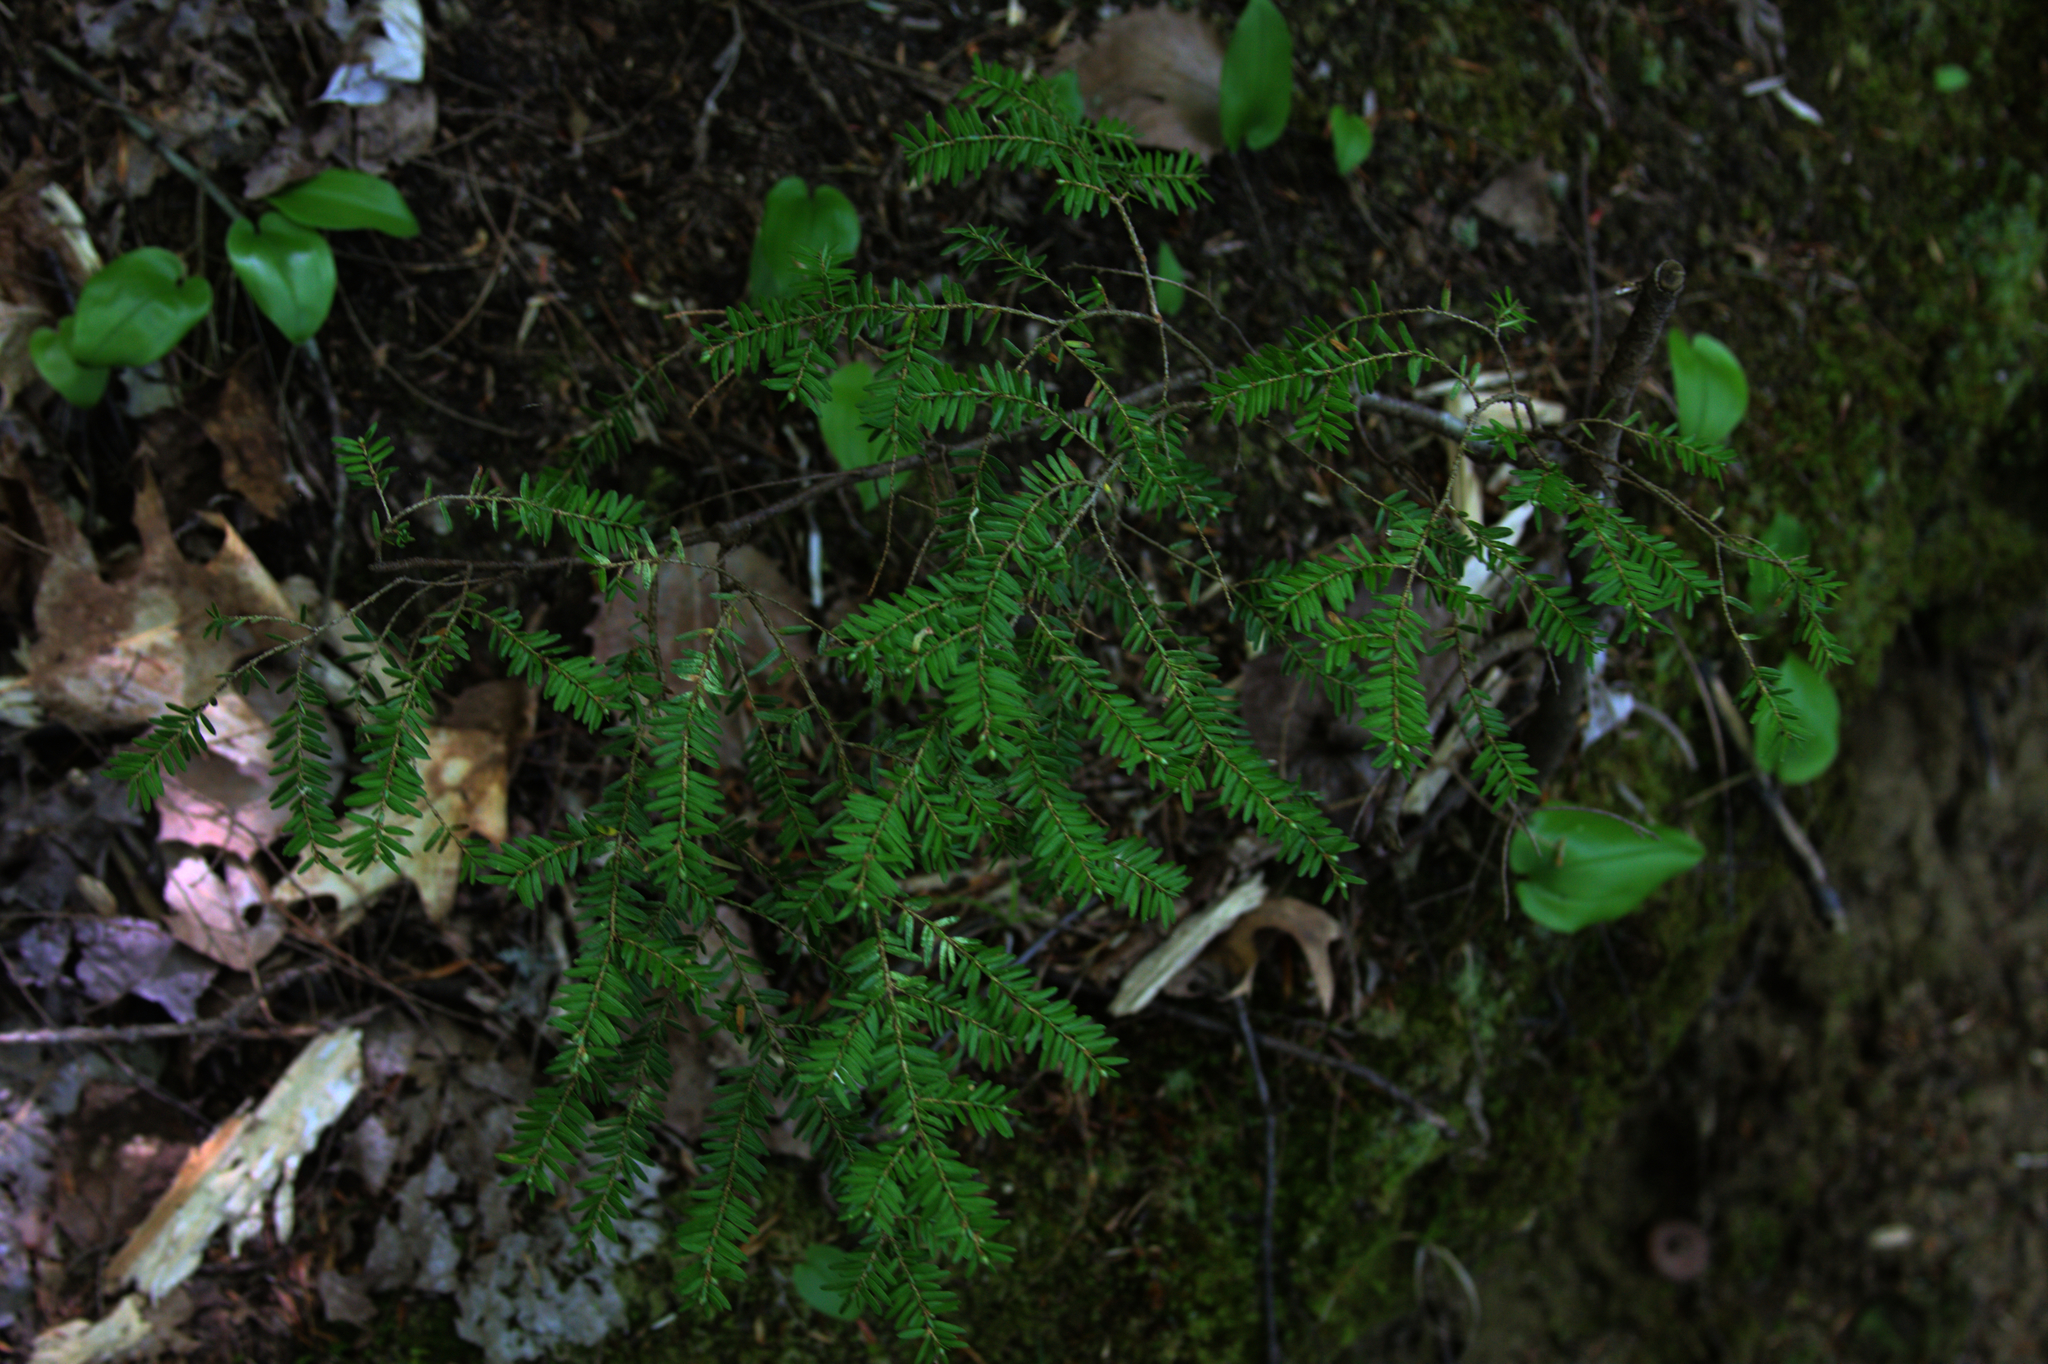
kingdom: Plantae
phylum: Tracheophyta
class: Pinopsida
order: Pinales
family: Pinaceae
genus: Tsuga
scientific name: Tsuga canadensis
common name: Eastern hemlock
